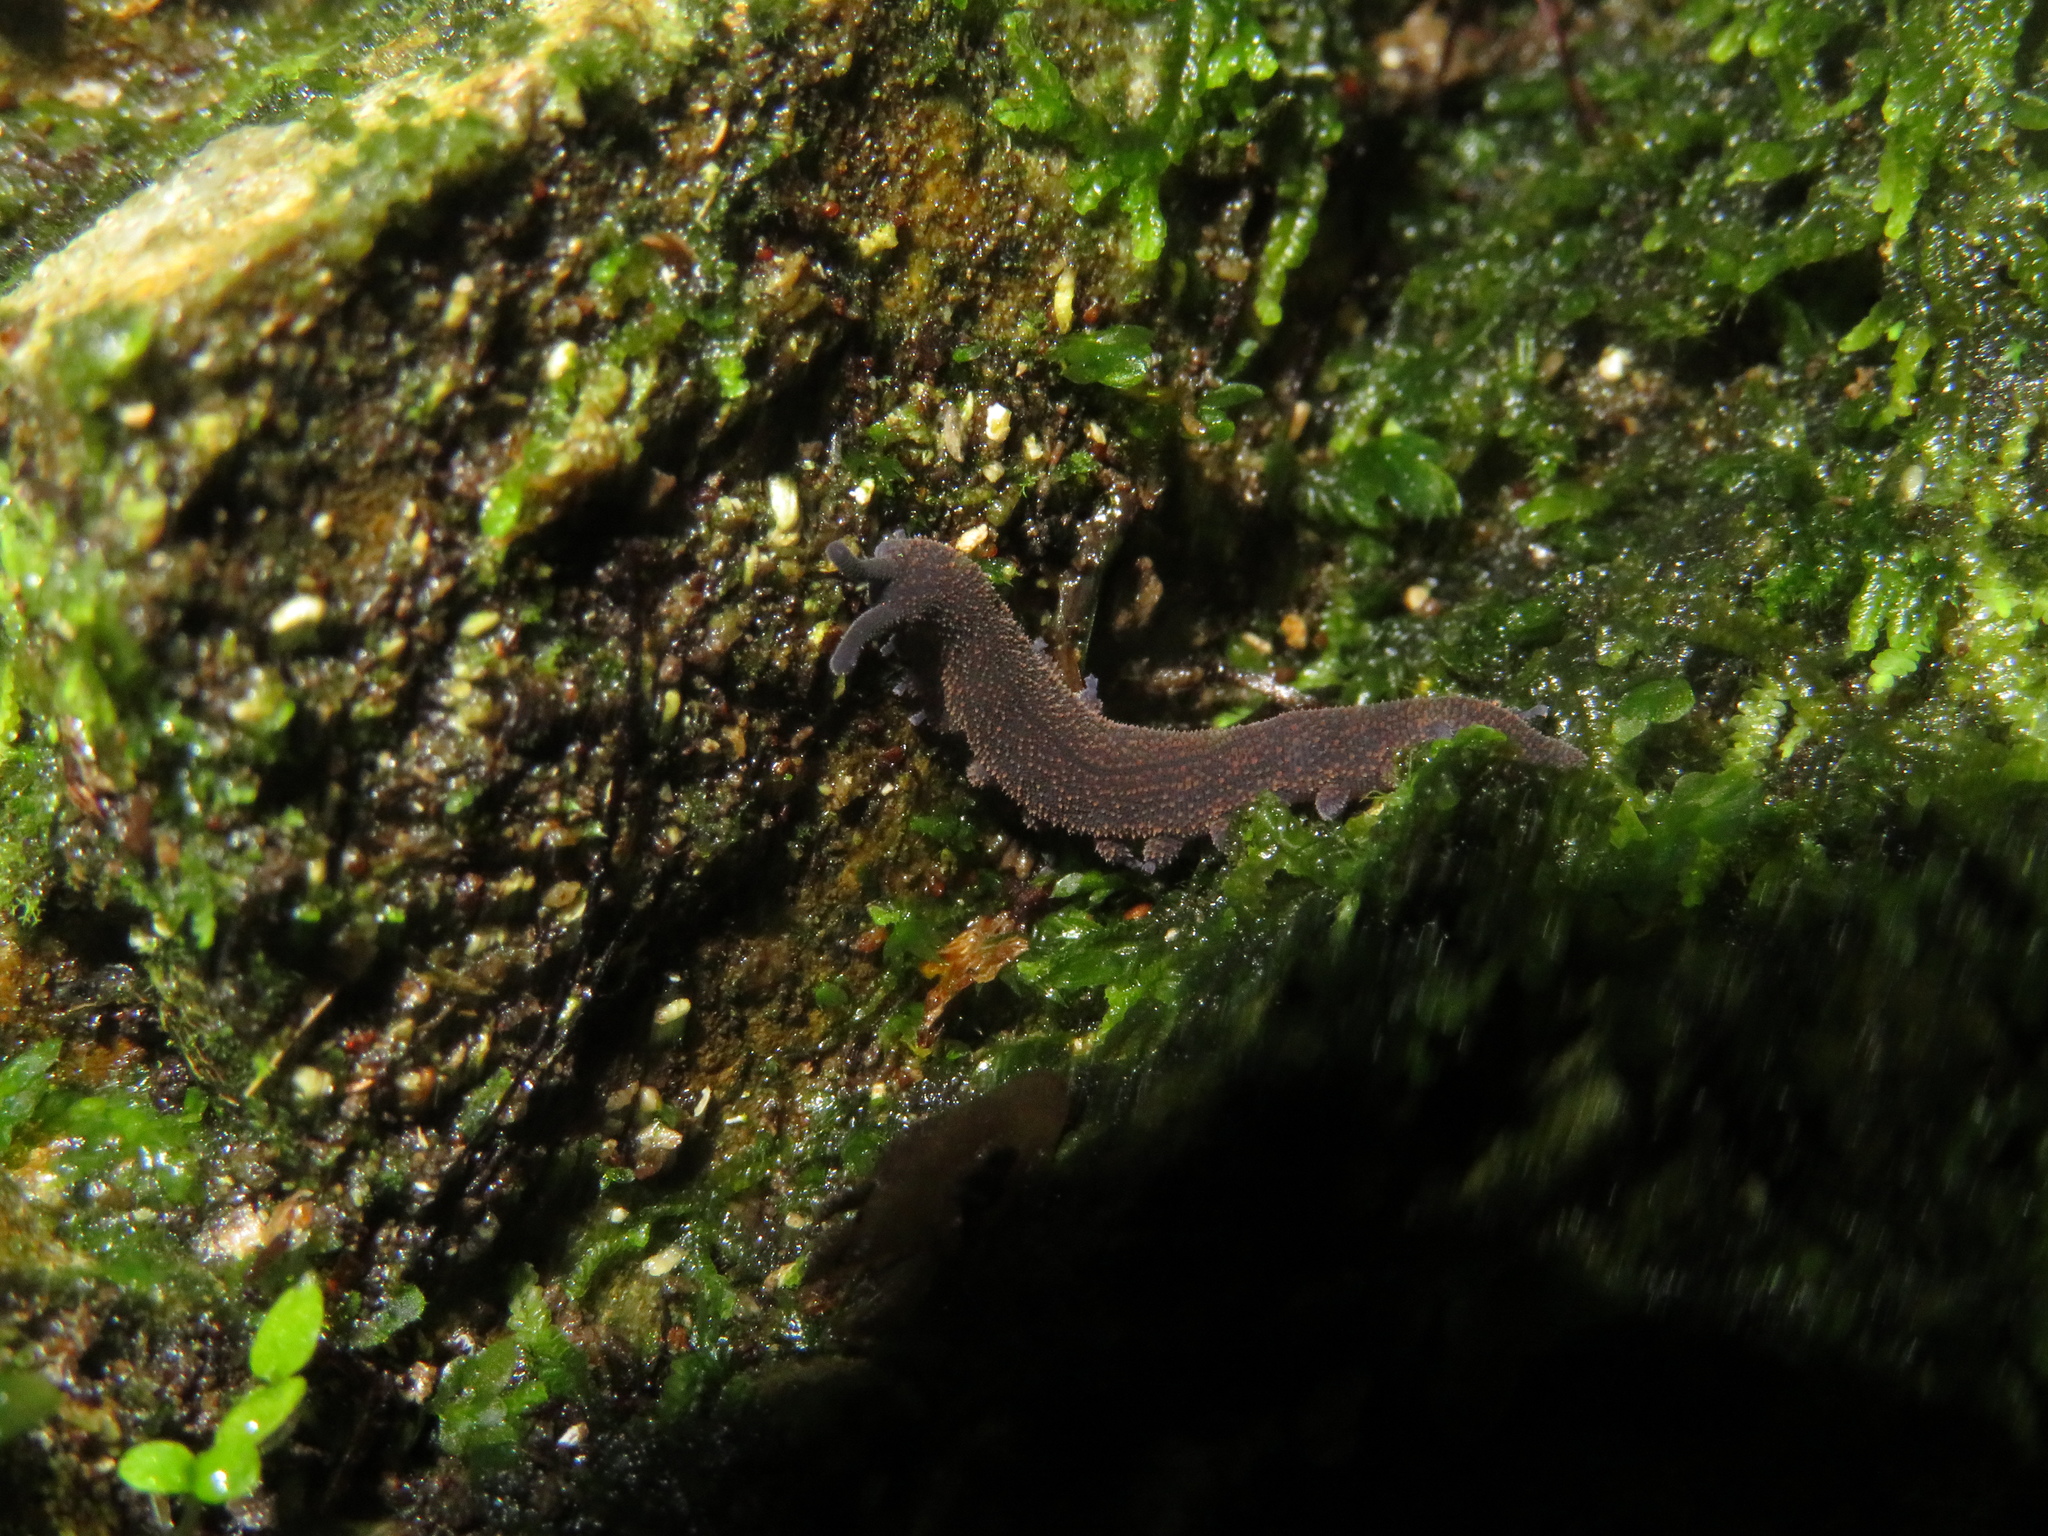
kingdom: Animalia
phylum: Onychophora
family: Peripatopsidae
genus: Peripatoides
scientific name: Peripatoides novaezealandiae
